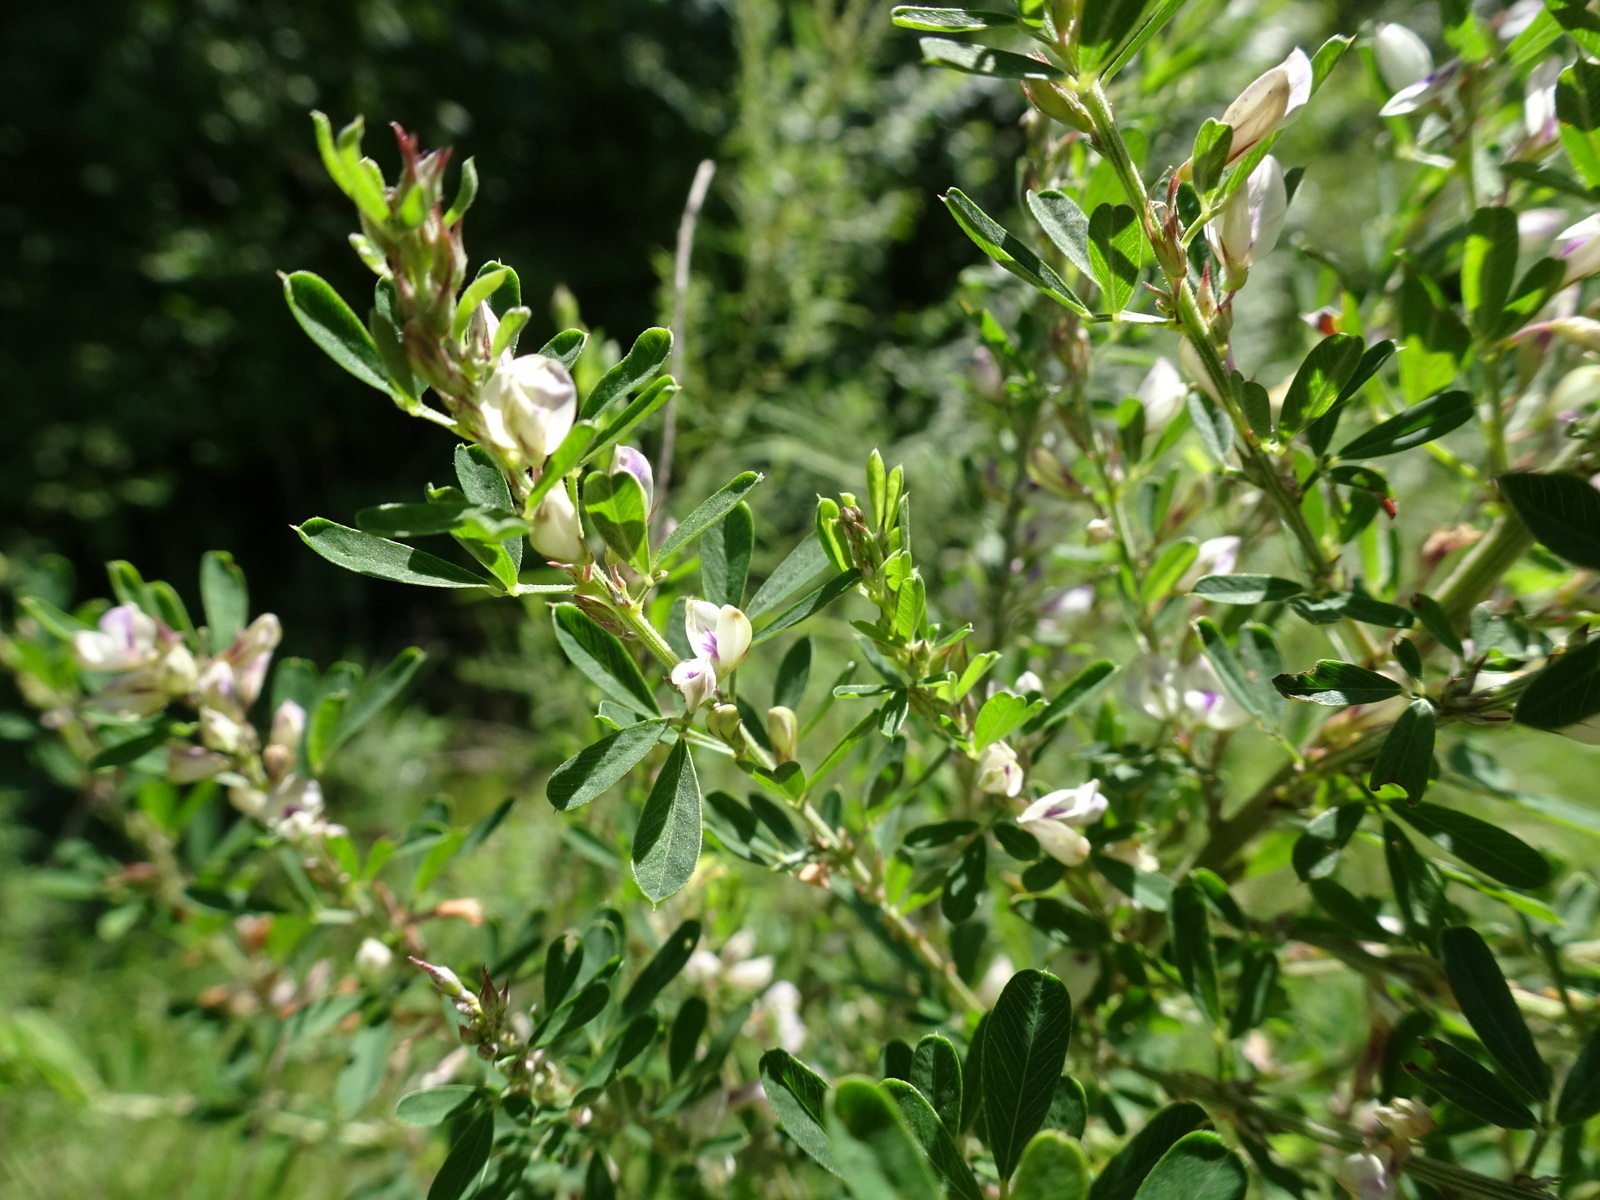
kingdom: Plantae
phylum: Tracheophyta
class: Magnoliopsida
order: Fabales
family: Fabaceae
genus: Lespedeza
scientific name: Lespedeza cuneata
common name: Chinese bush-clover
